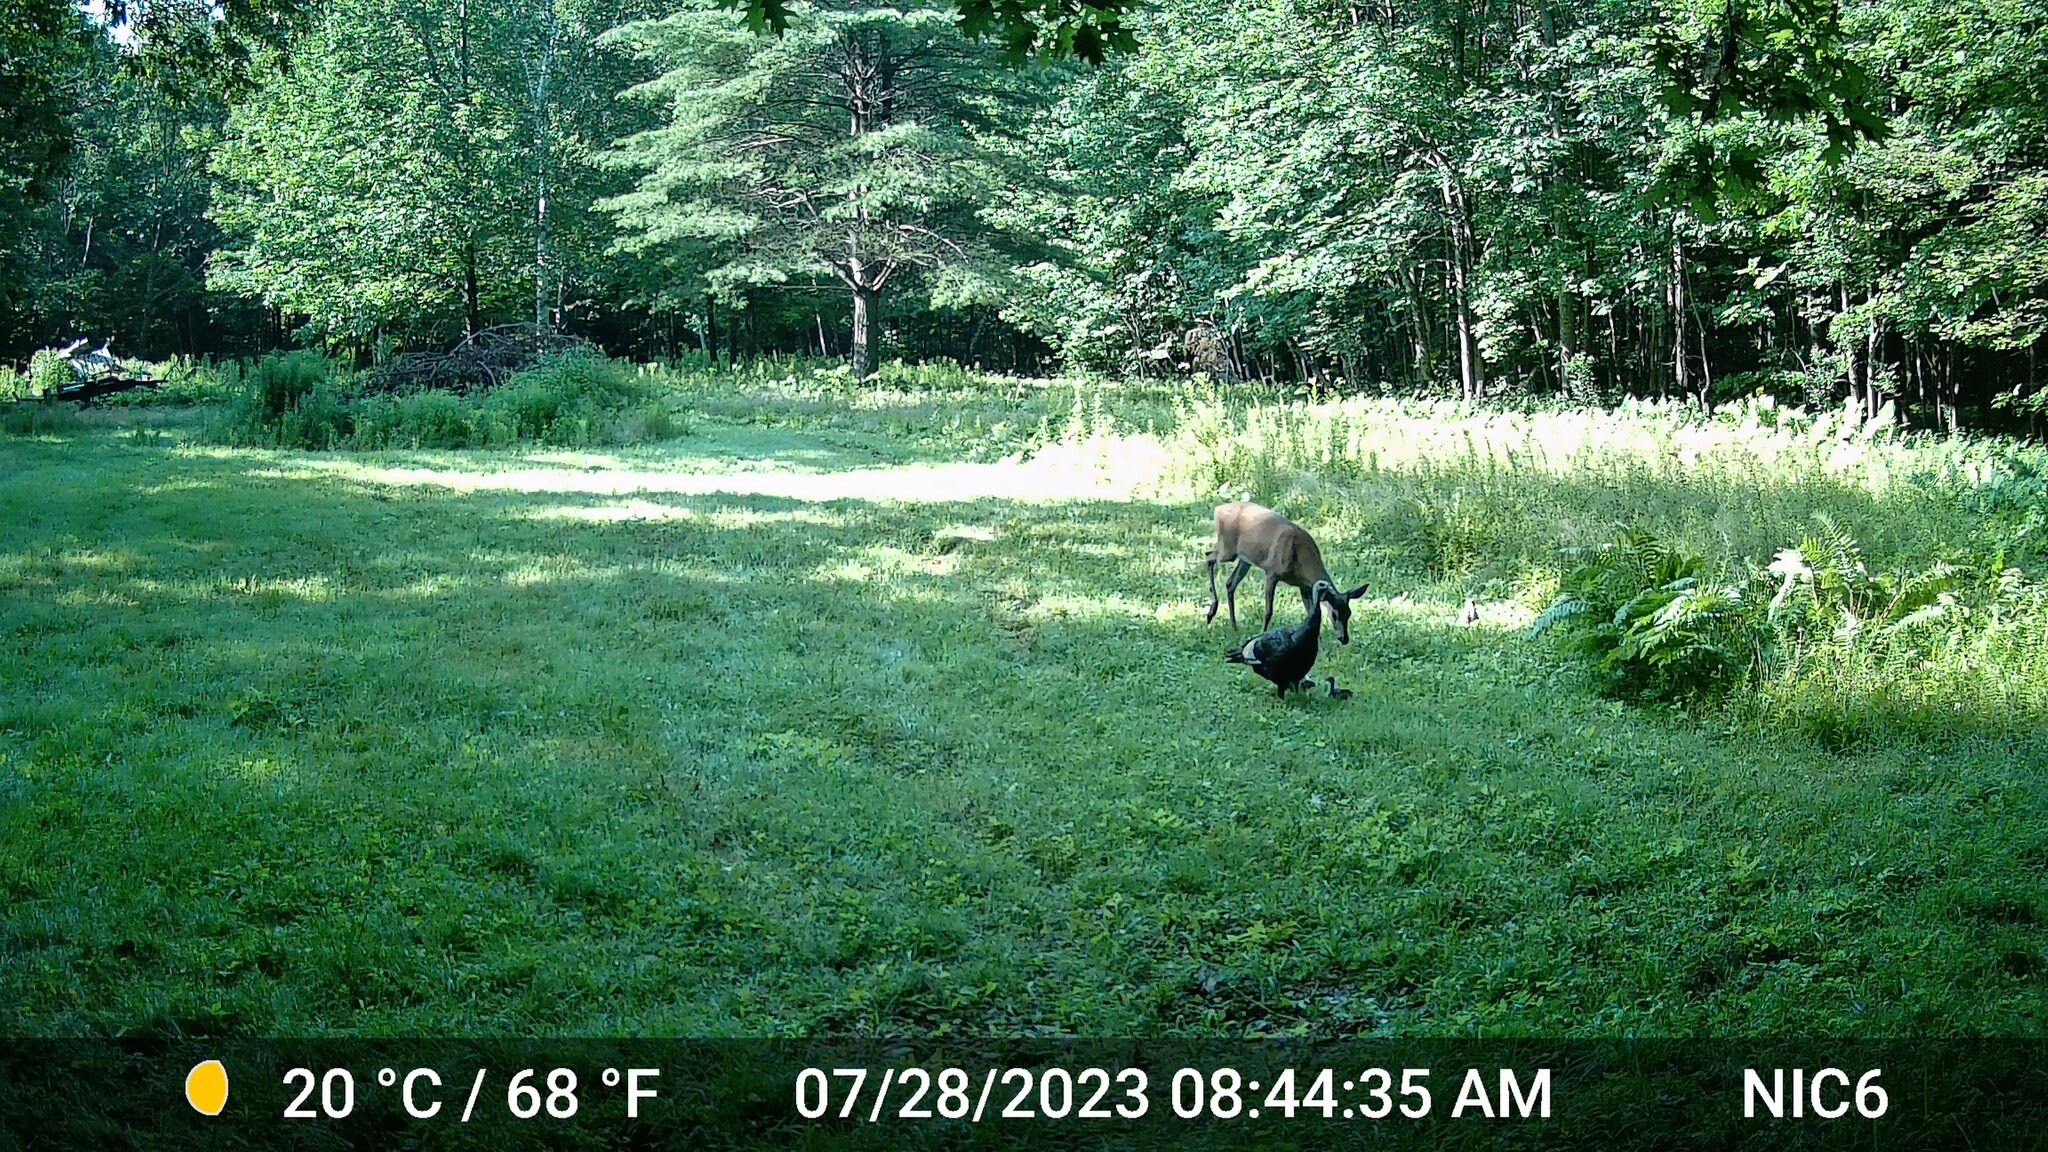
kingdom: Animalia
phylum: Chordata
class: Mammalia
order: Artiodactyla
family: Cervidae
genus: Odocoileus
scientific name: Odocoileus virginianus
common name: White-tailed deer
